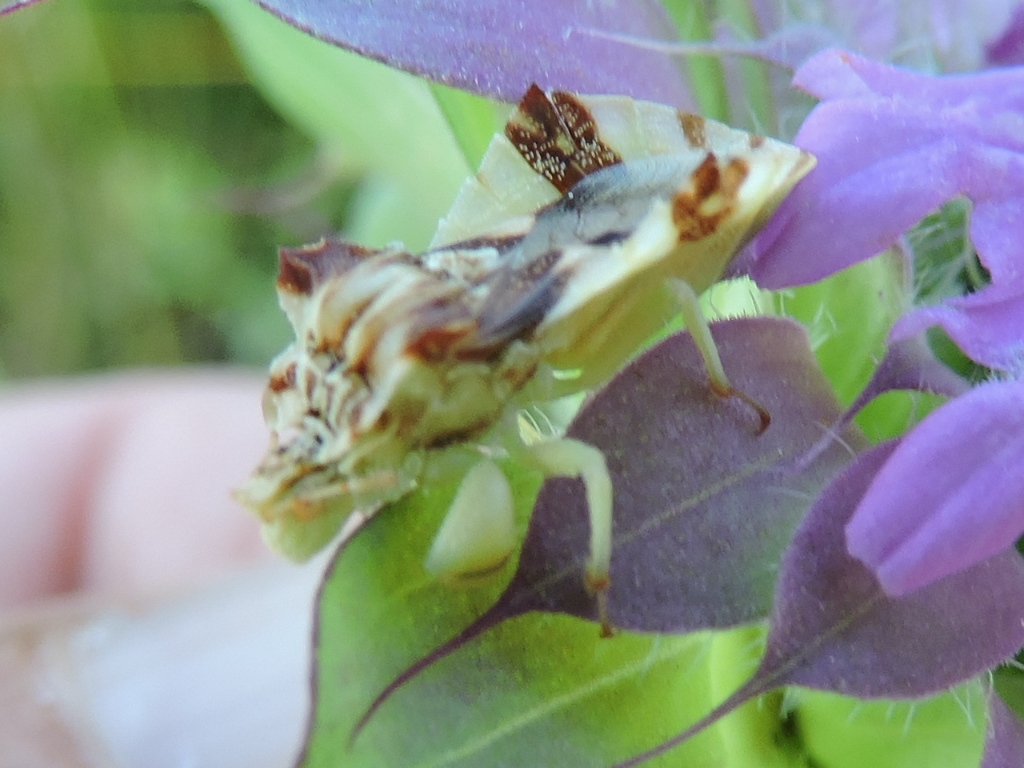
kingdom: Animalia
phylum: Arthropoda
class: Insecta
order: Hemiptera
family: Reduviidae
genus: Phymata
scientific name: Phymata americana
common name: Jagged ambush bug
